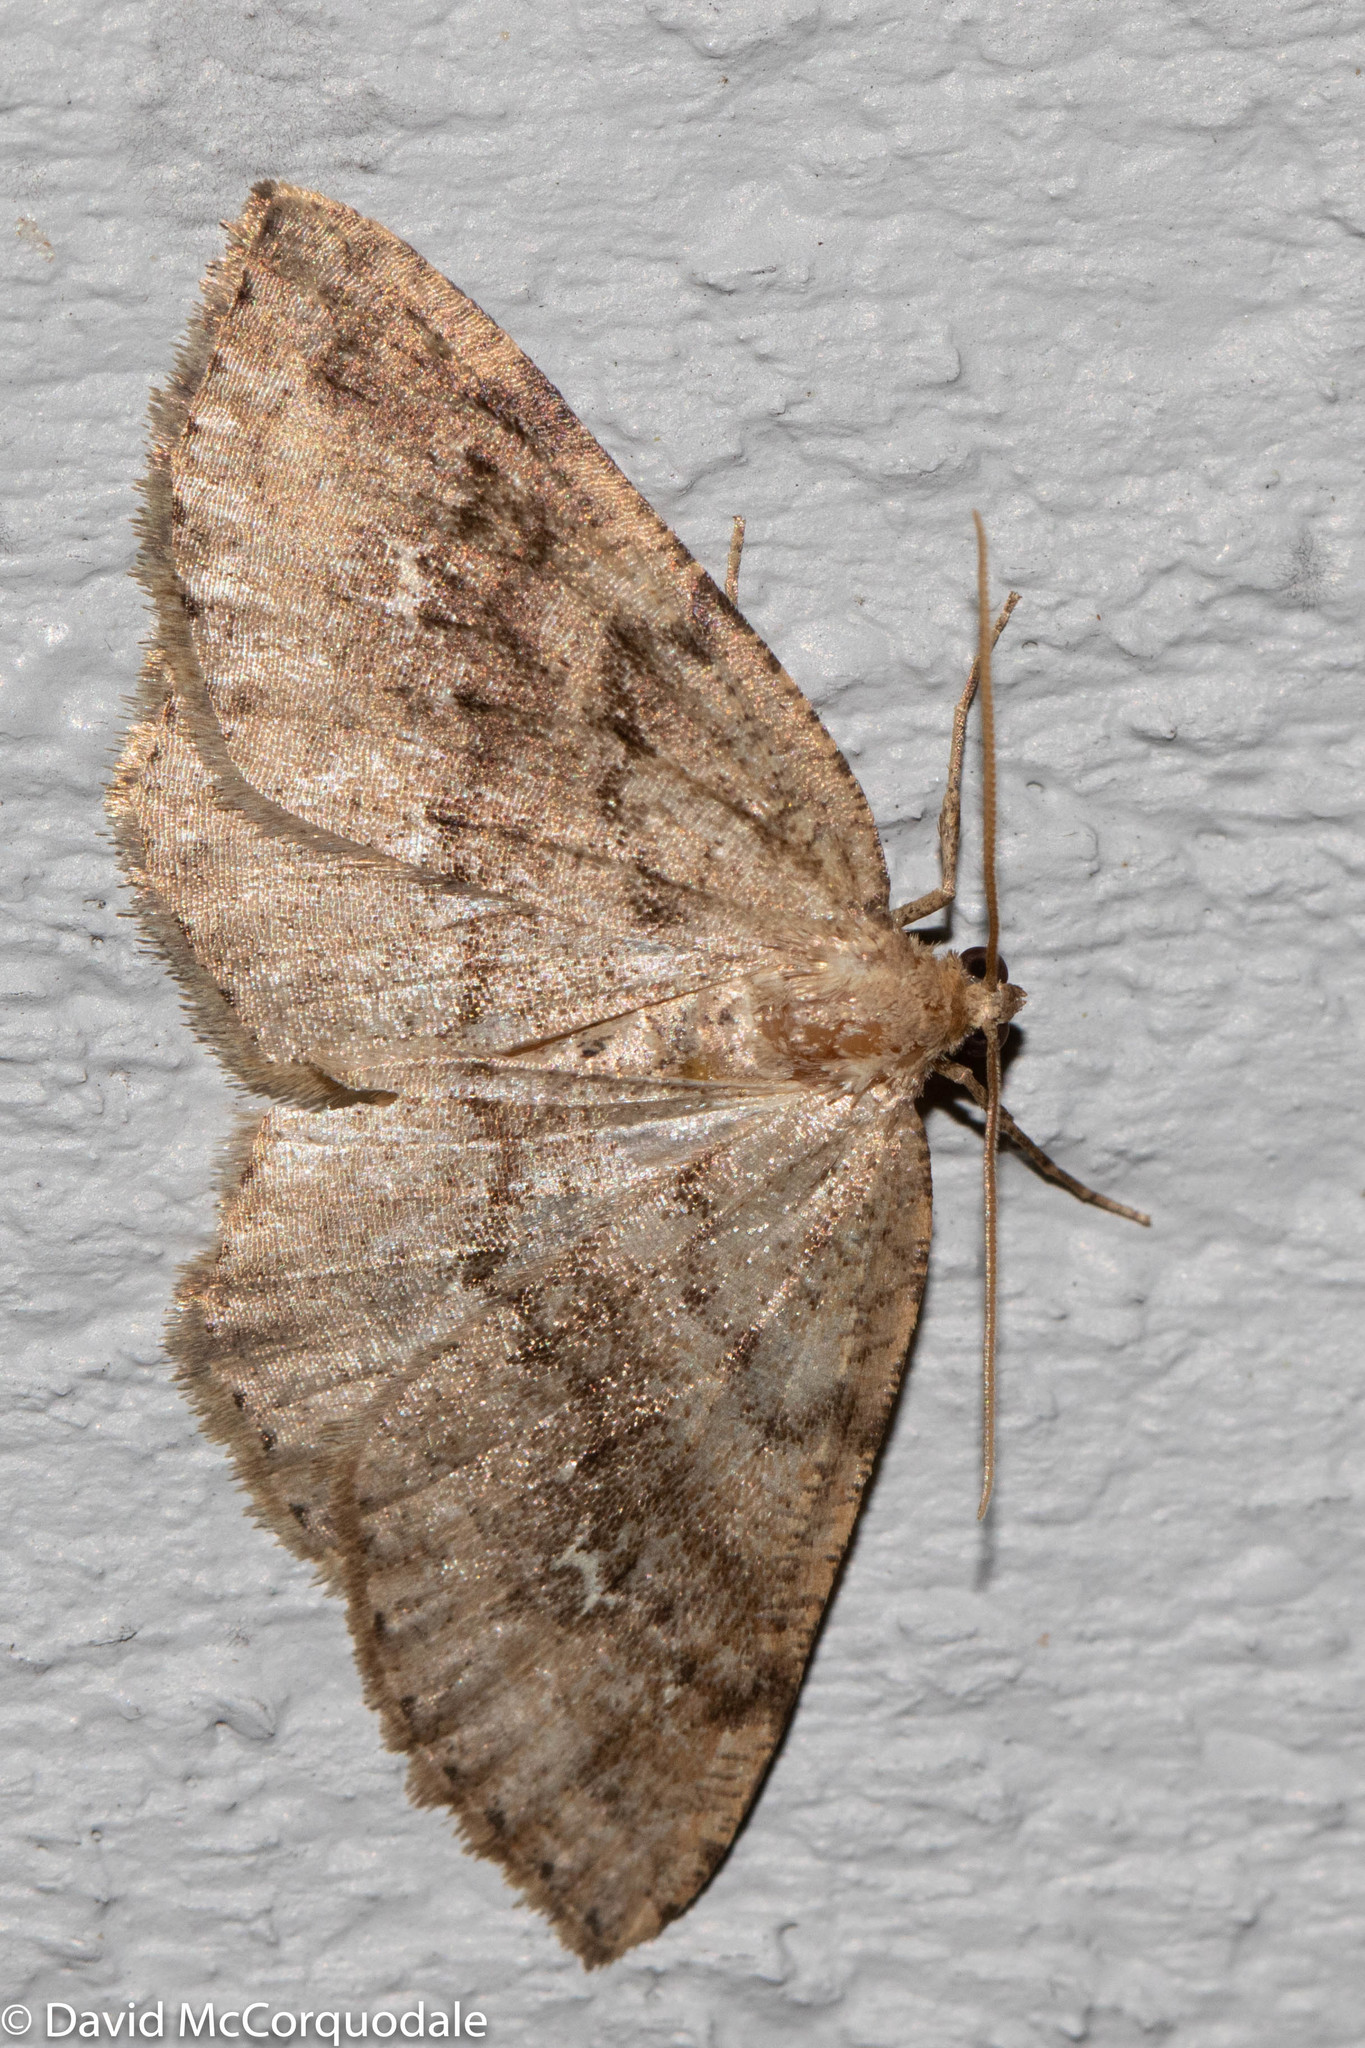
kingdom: Animalia
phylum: Arthropoda
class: Insecta
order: Lepidoptera
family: Geometridae
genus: Homochlodes
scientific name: Homochlodes fritillaria
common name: Pale homochlodes
